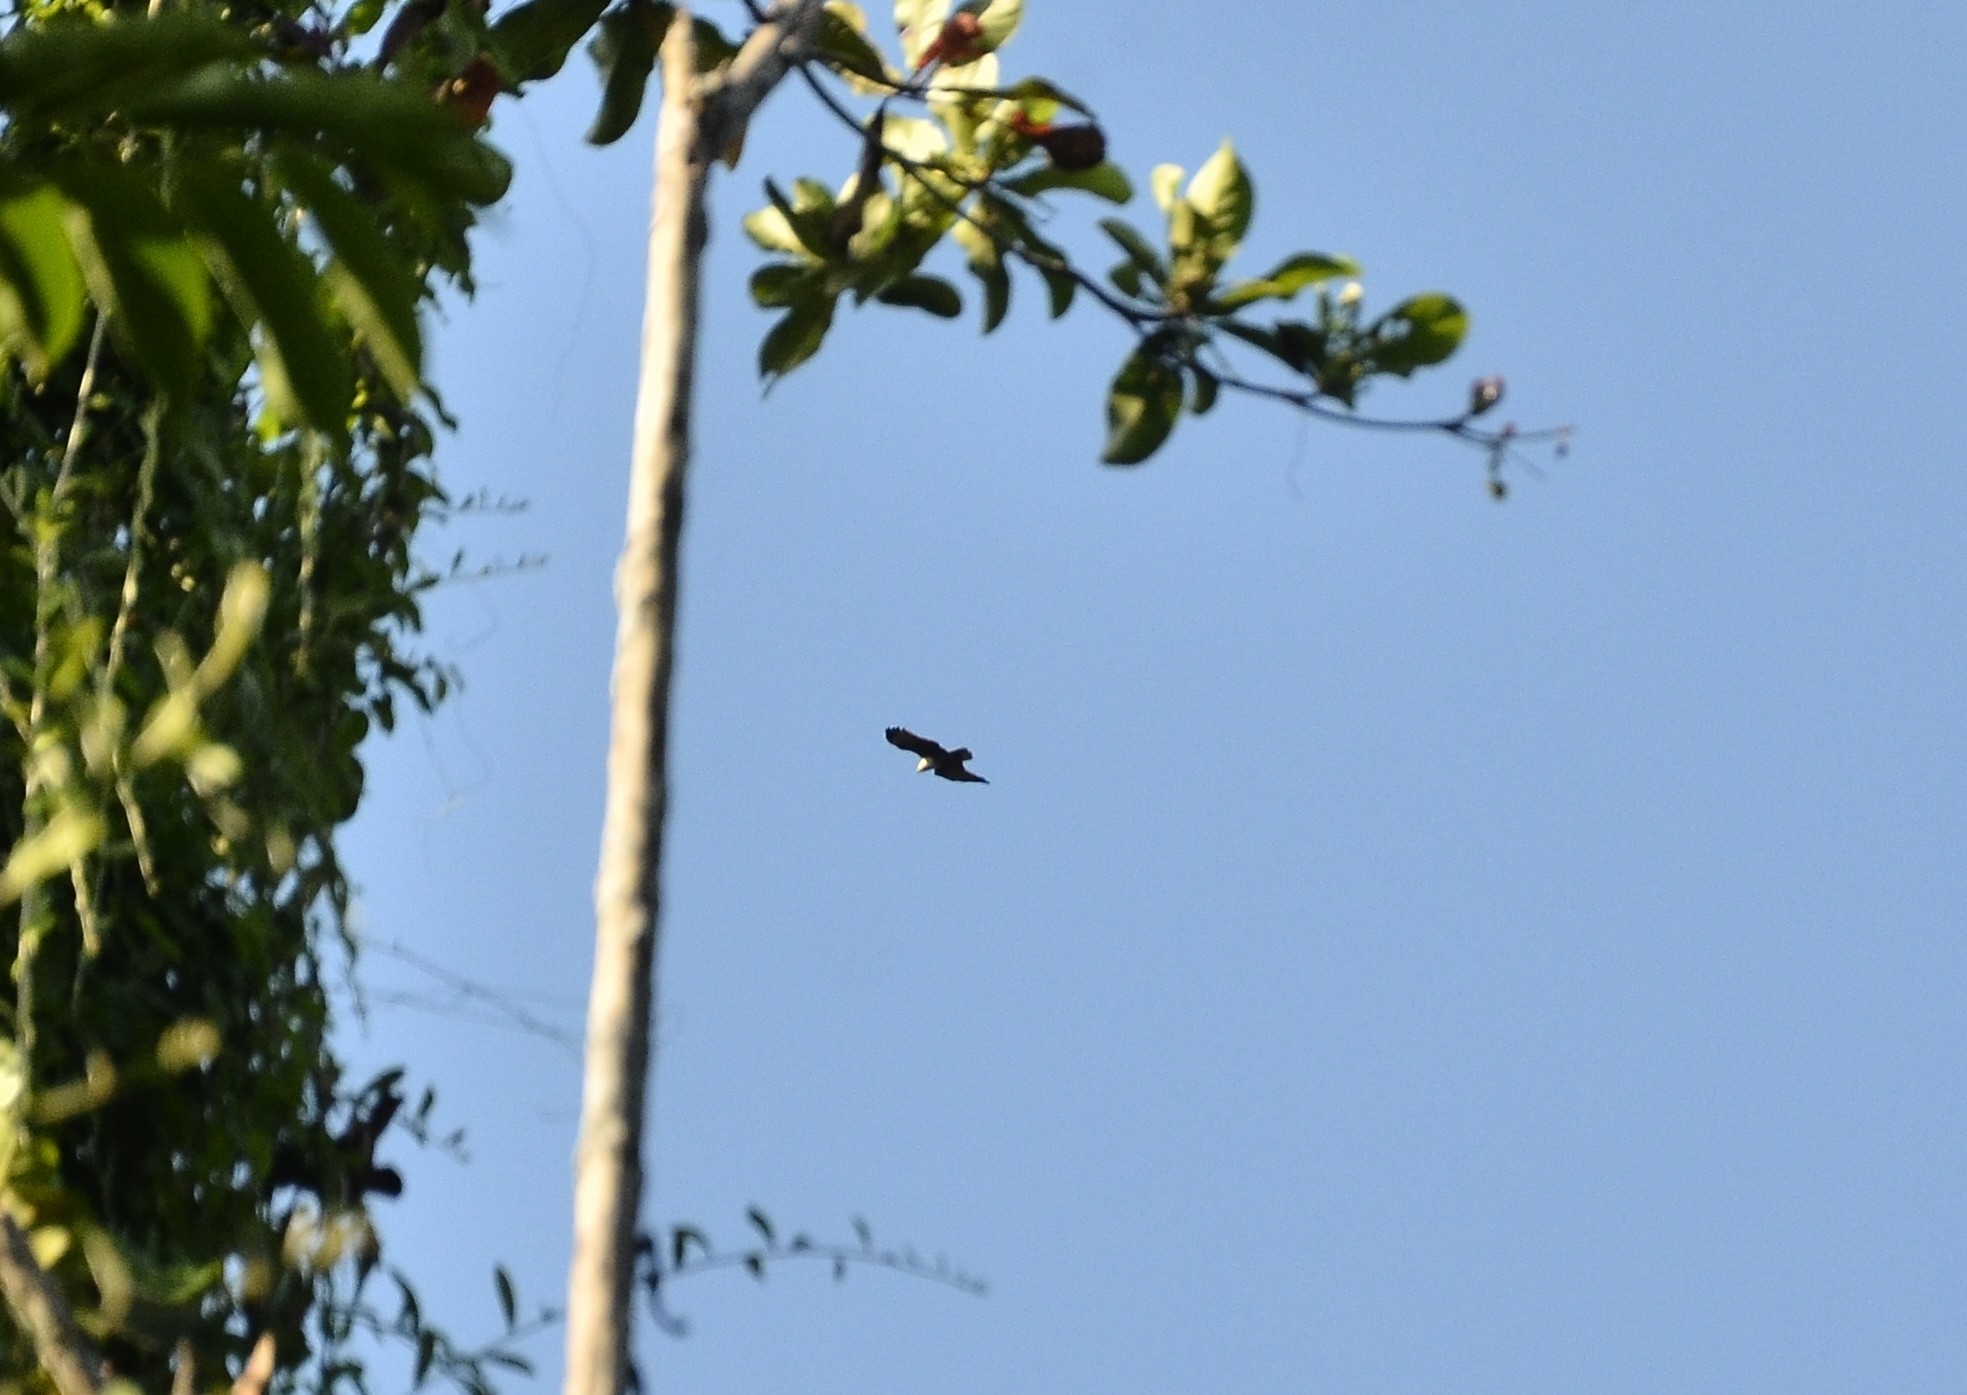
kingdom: Animalia
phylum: Chordata
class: Aves
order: Accipitriformes
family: Accipitridae
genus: Haliastur
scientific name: Haliastur indus
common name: Brahminy kite
